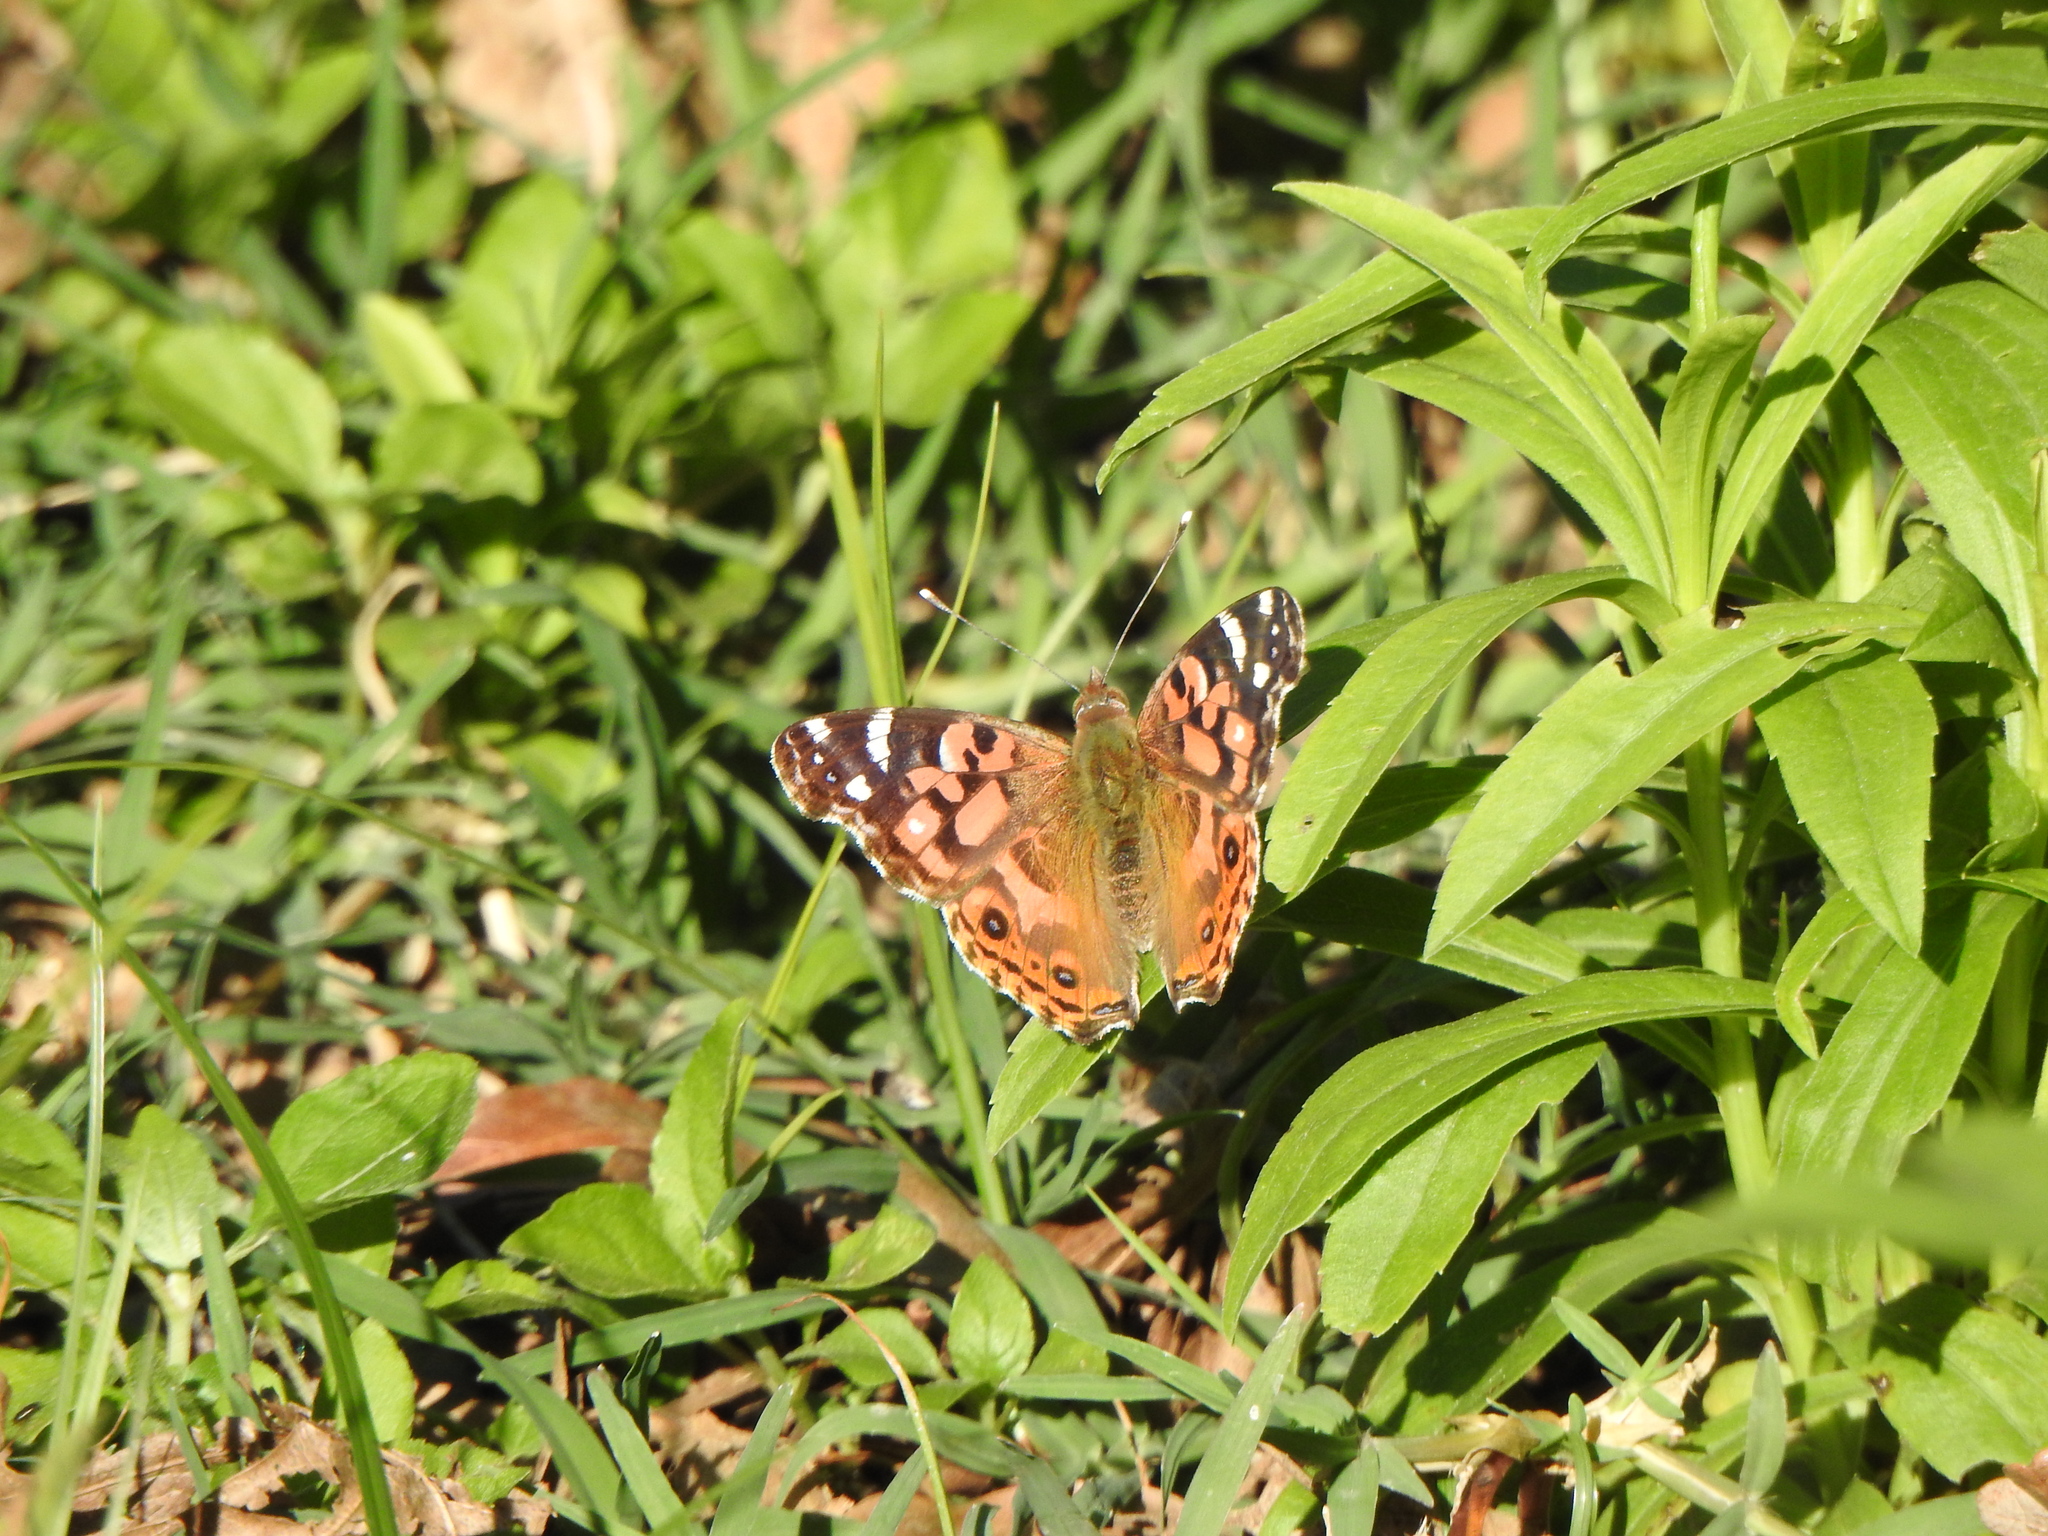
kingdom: Animalia
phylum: Arthropoda
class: Insecta
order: Lepidoptera
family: Nymphalidae
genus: Vanessa
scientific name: Vanessa braziliensis
